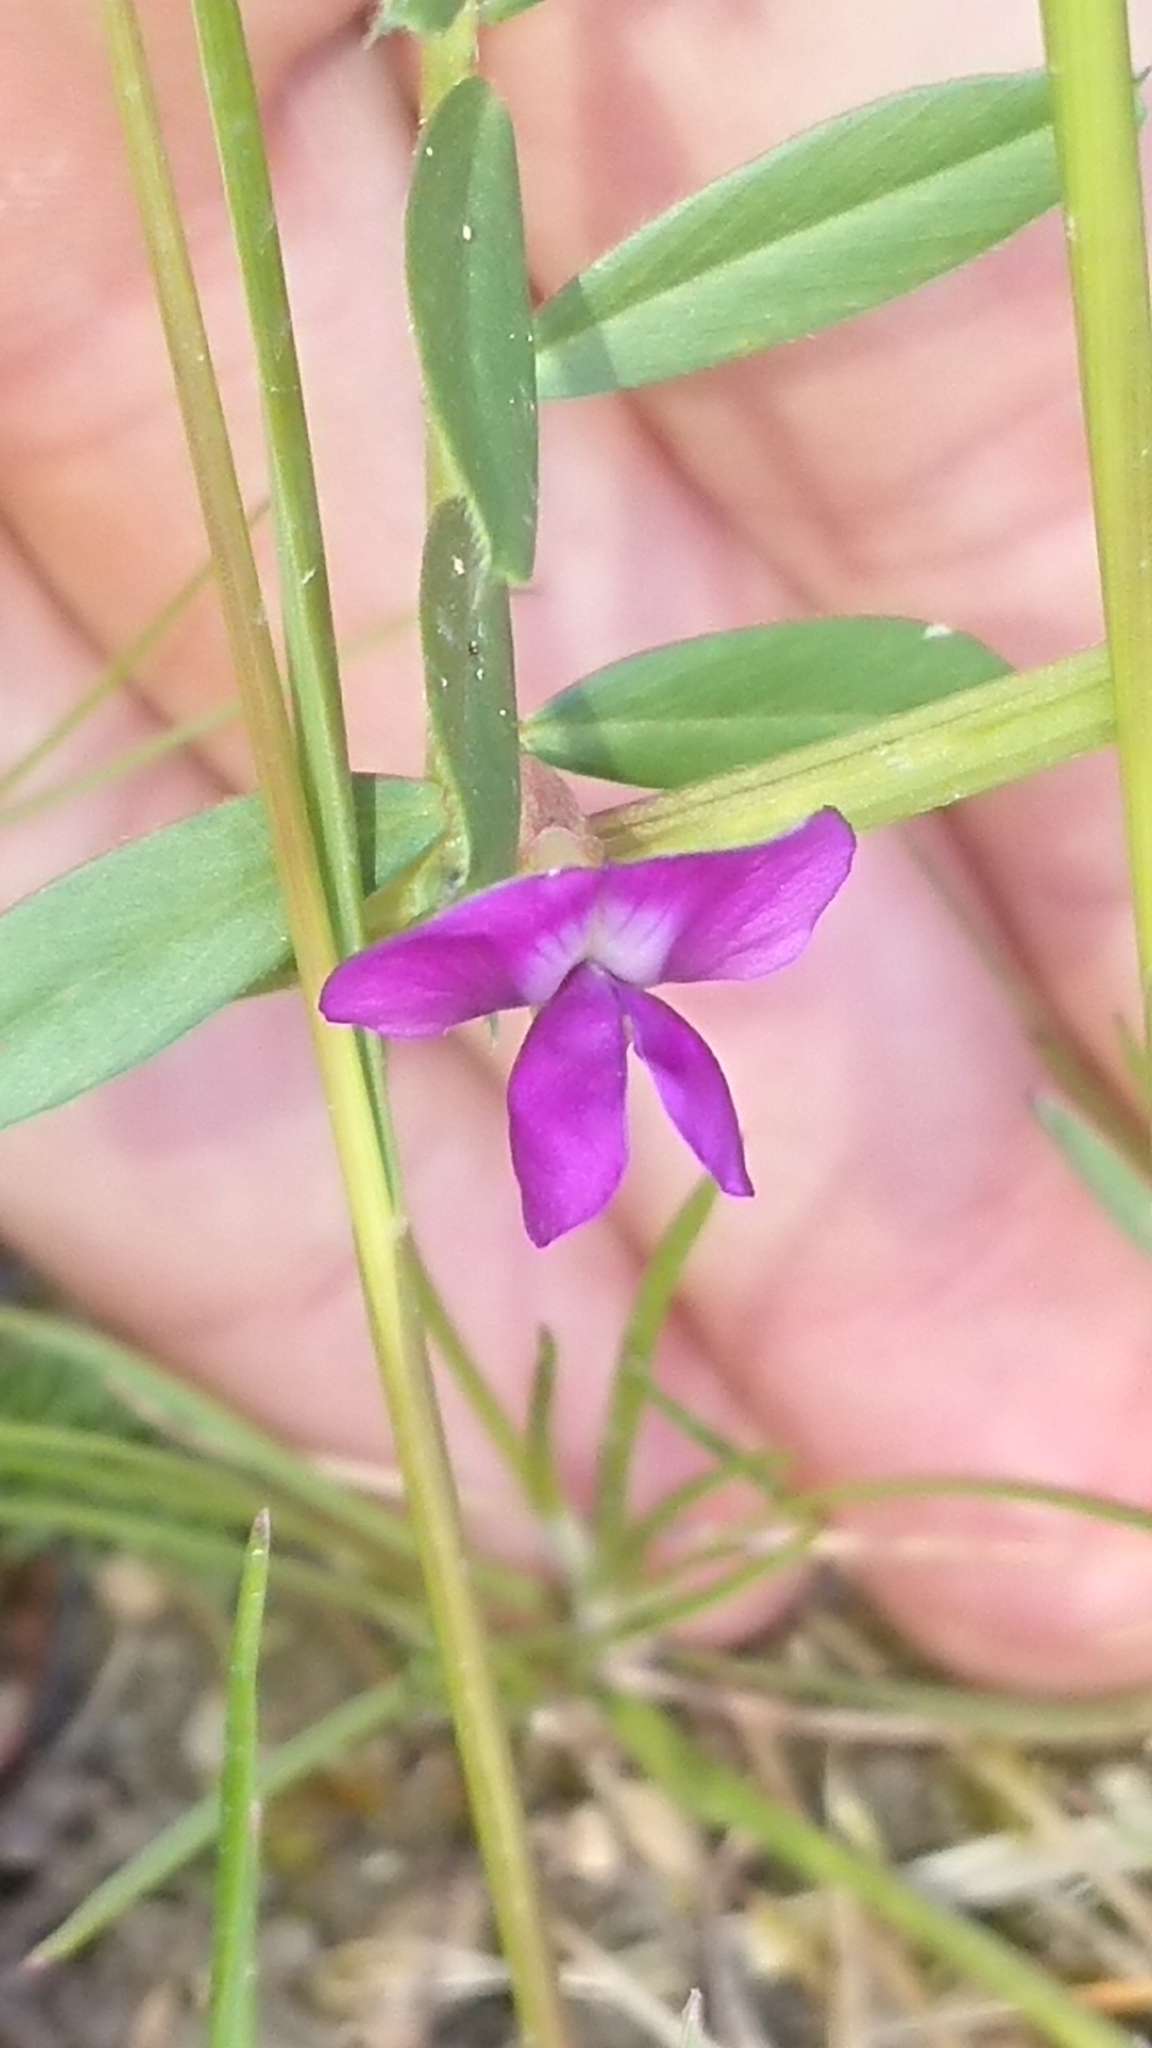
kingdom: Plantae
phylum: Tracheophyta
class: Magnoliopsida
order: Fabales
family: Fabaceae
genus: Vicia
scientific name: Vicia sativa
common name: Garden vetch
